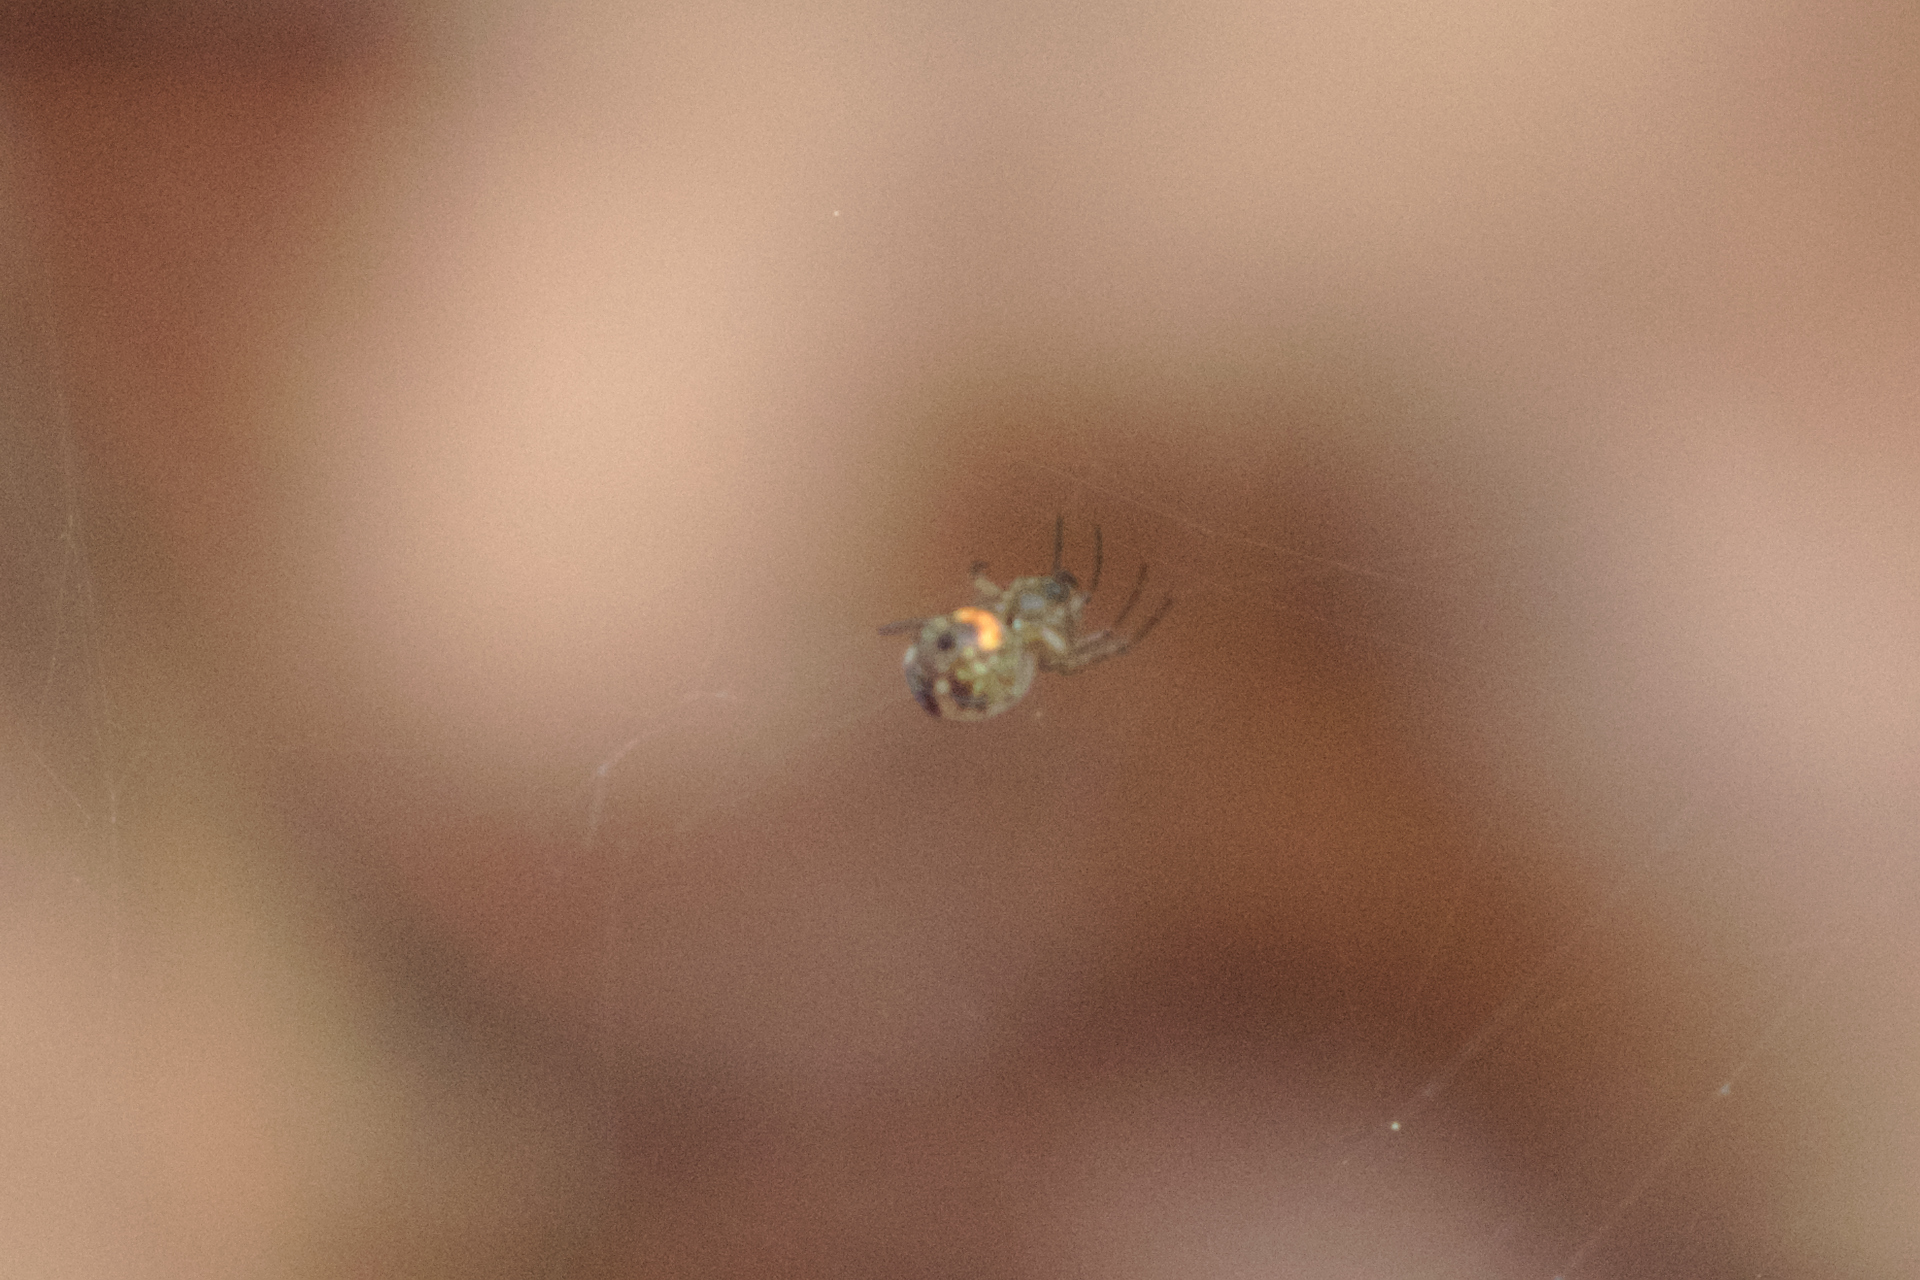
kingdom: Animalia
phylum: Arthropoda
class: Arachnida
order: Araneae
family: Tetragnathidae
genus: Leucauge
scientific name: Leucauge venusta
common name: Longjawed orb weavers
